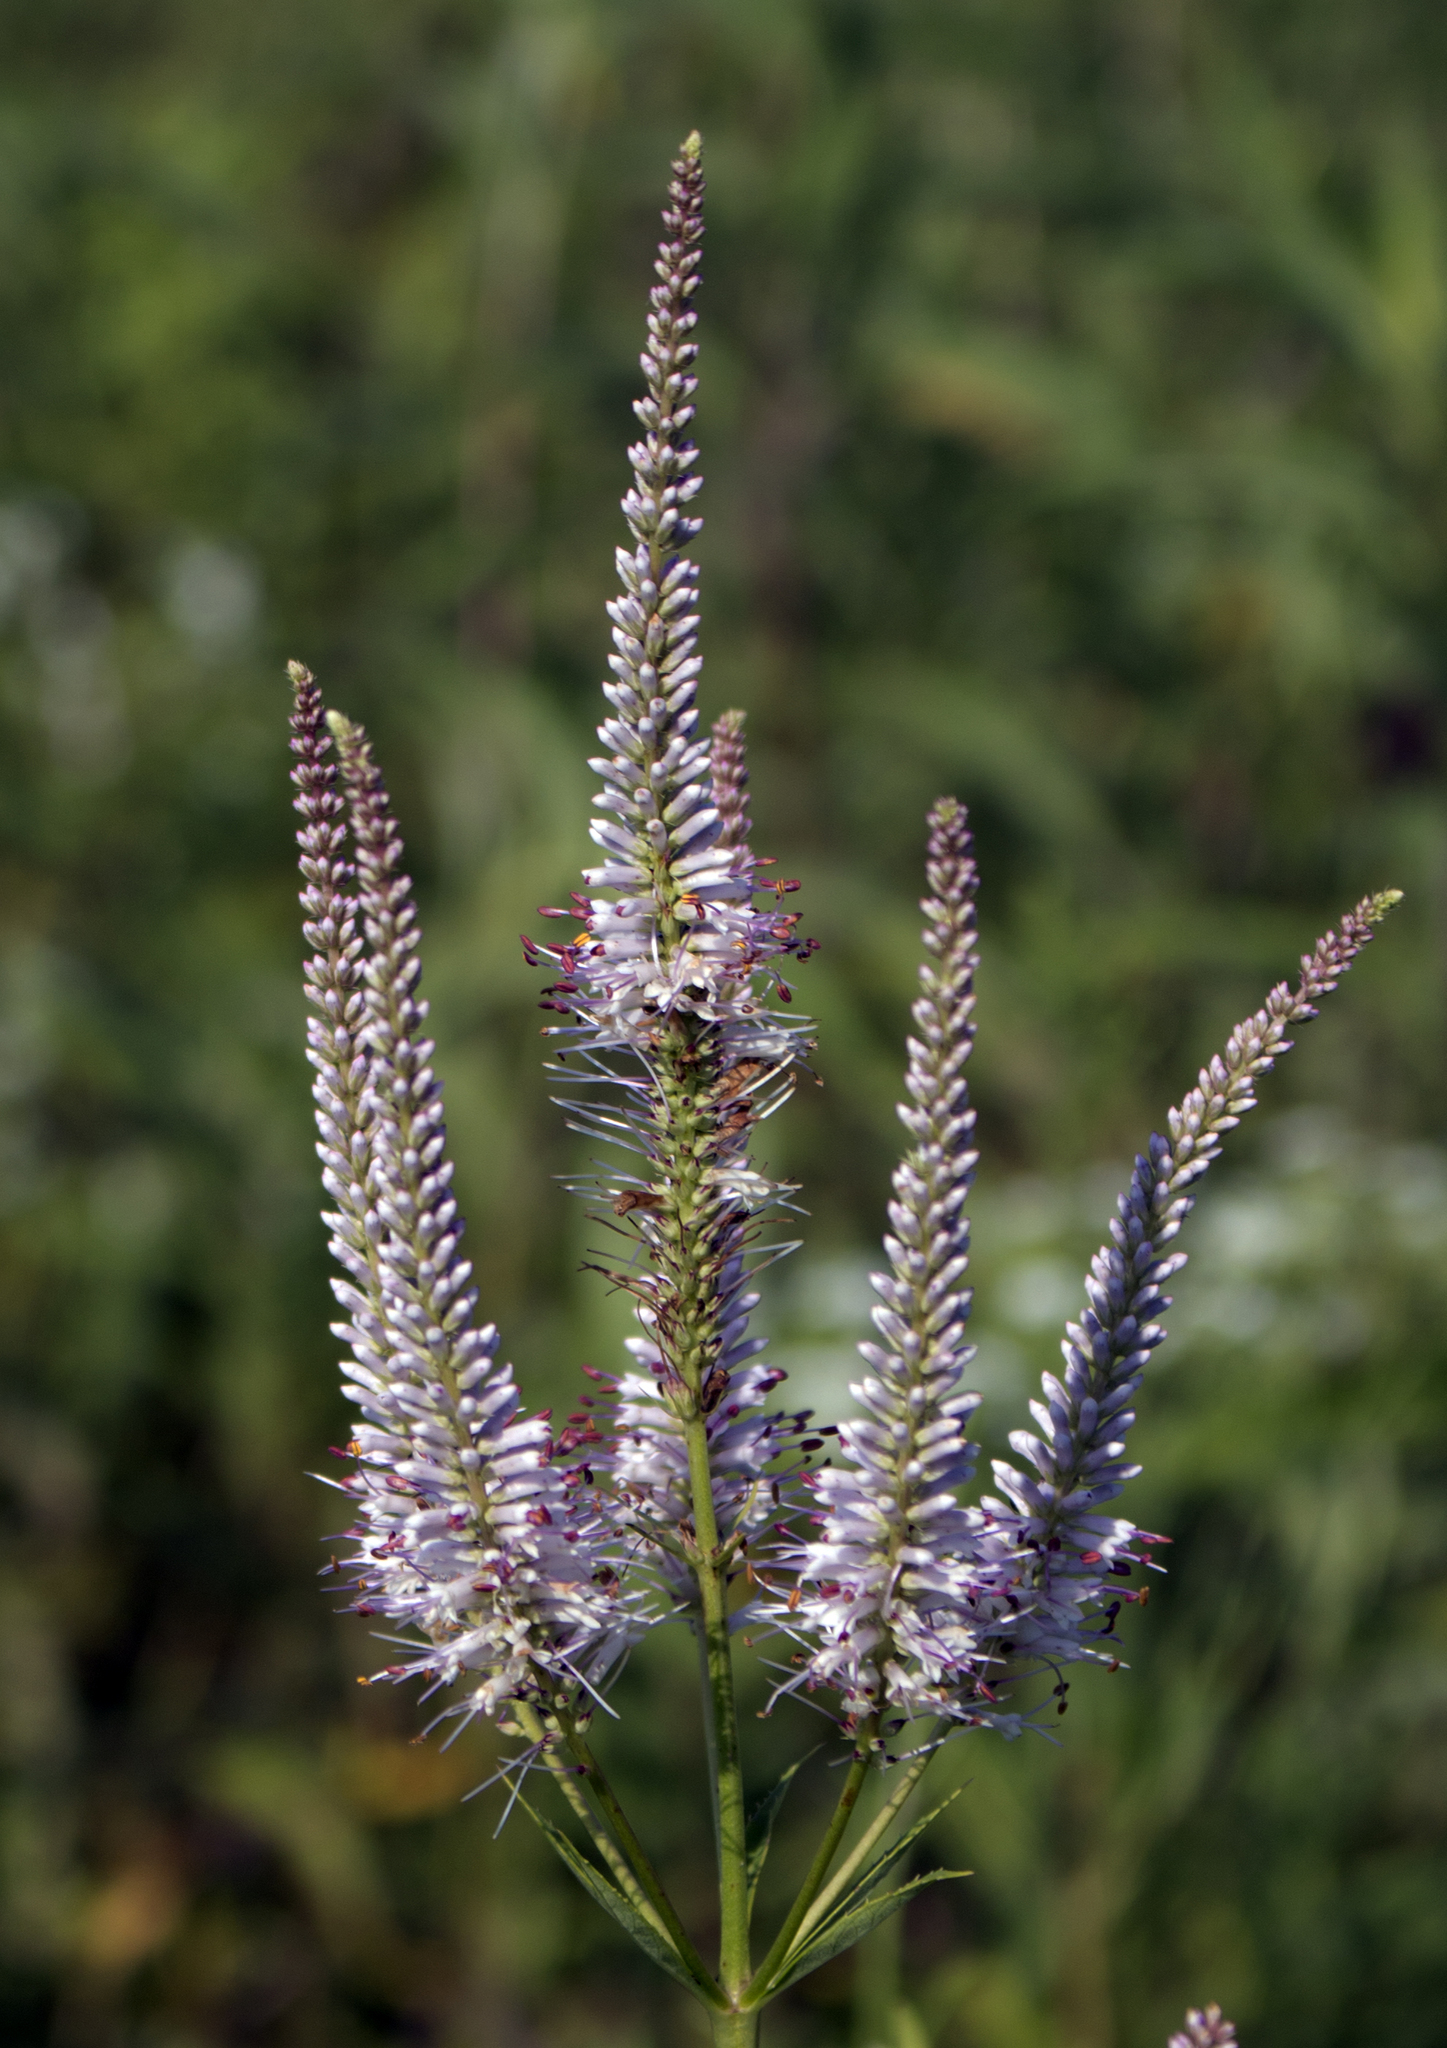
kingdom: Plantae
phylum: Tracheophyta
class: Magnoliopsida
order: Lamiales
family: Plantaginaceae
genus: Veronicastrum
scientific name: Veronicastrum virginicum
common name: Blackroot
